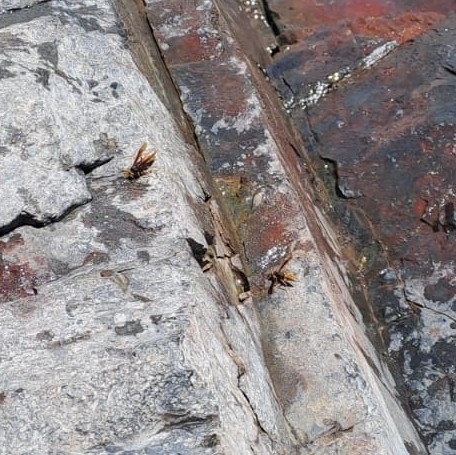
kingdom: Animalia
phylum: Arthropoda
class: Insecta
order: Hymenoptera
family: Eumenidae
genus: Polistes
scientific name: Polistes buyssoni
